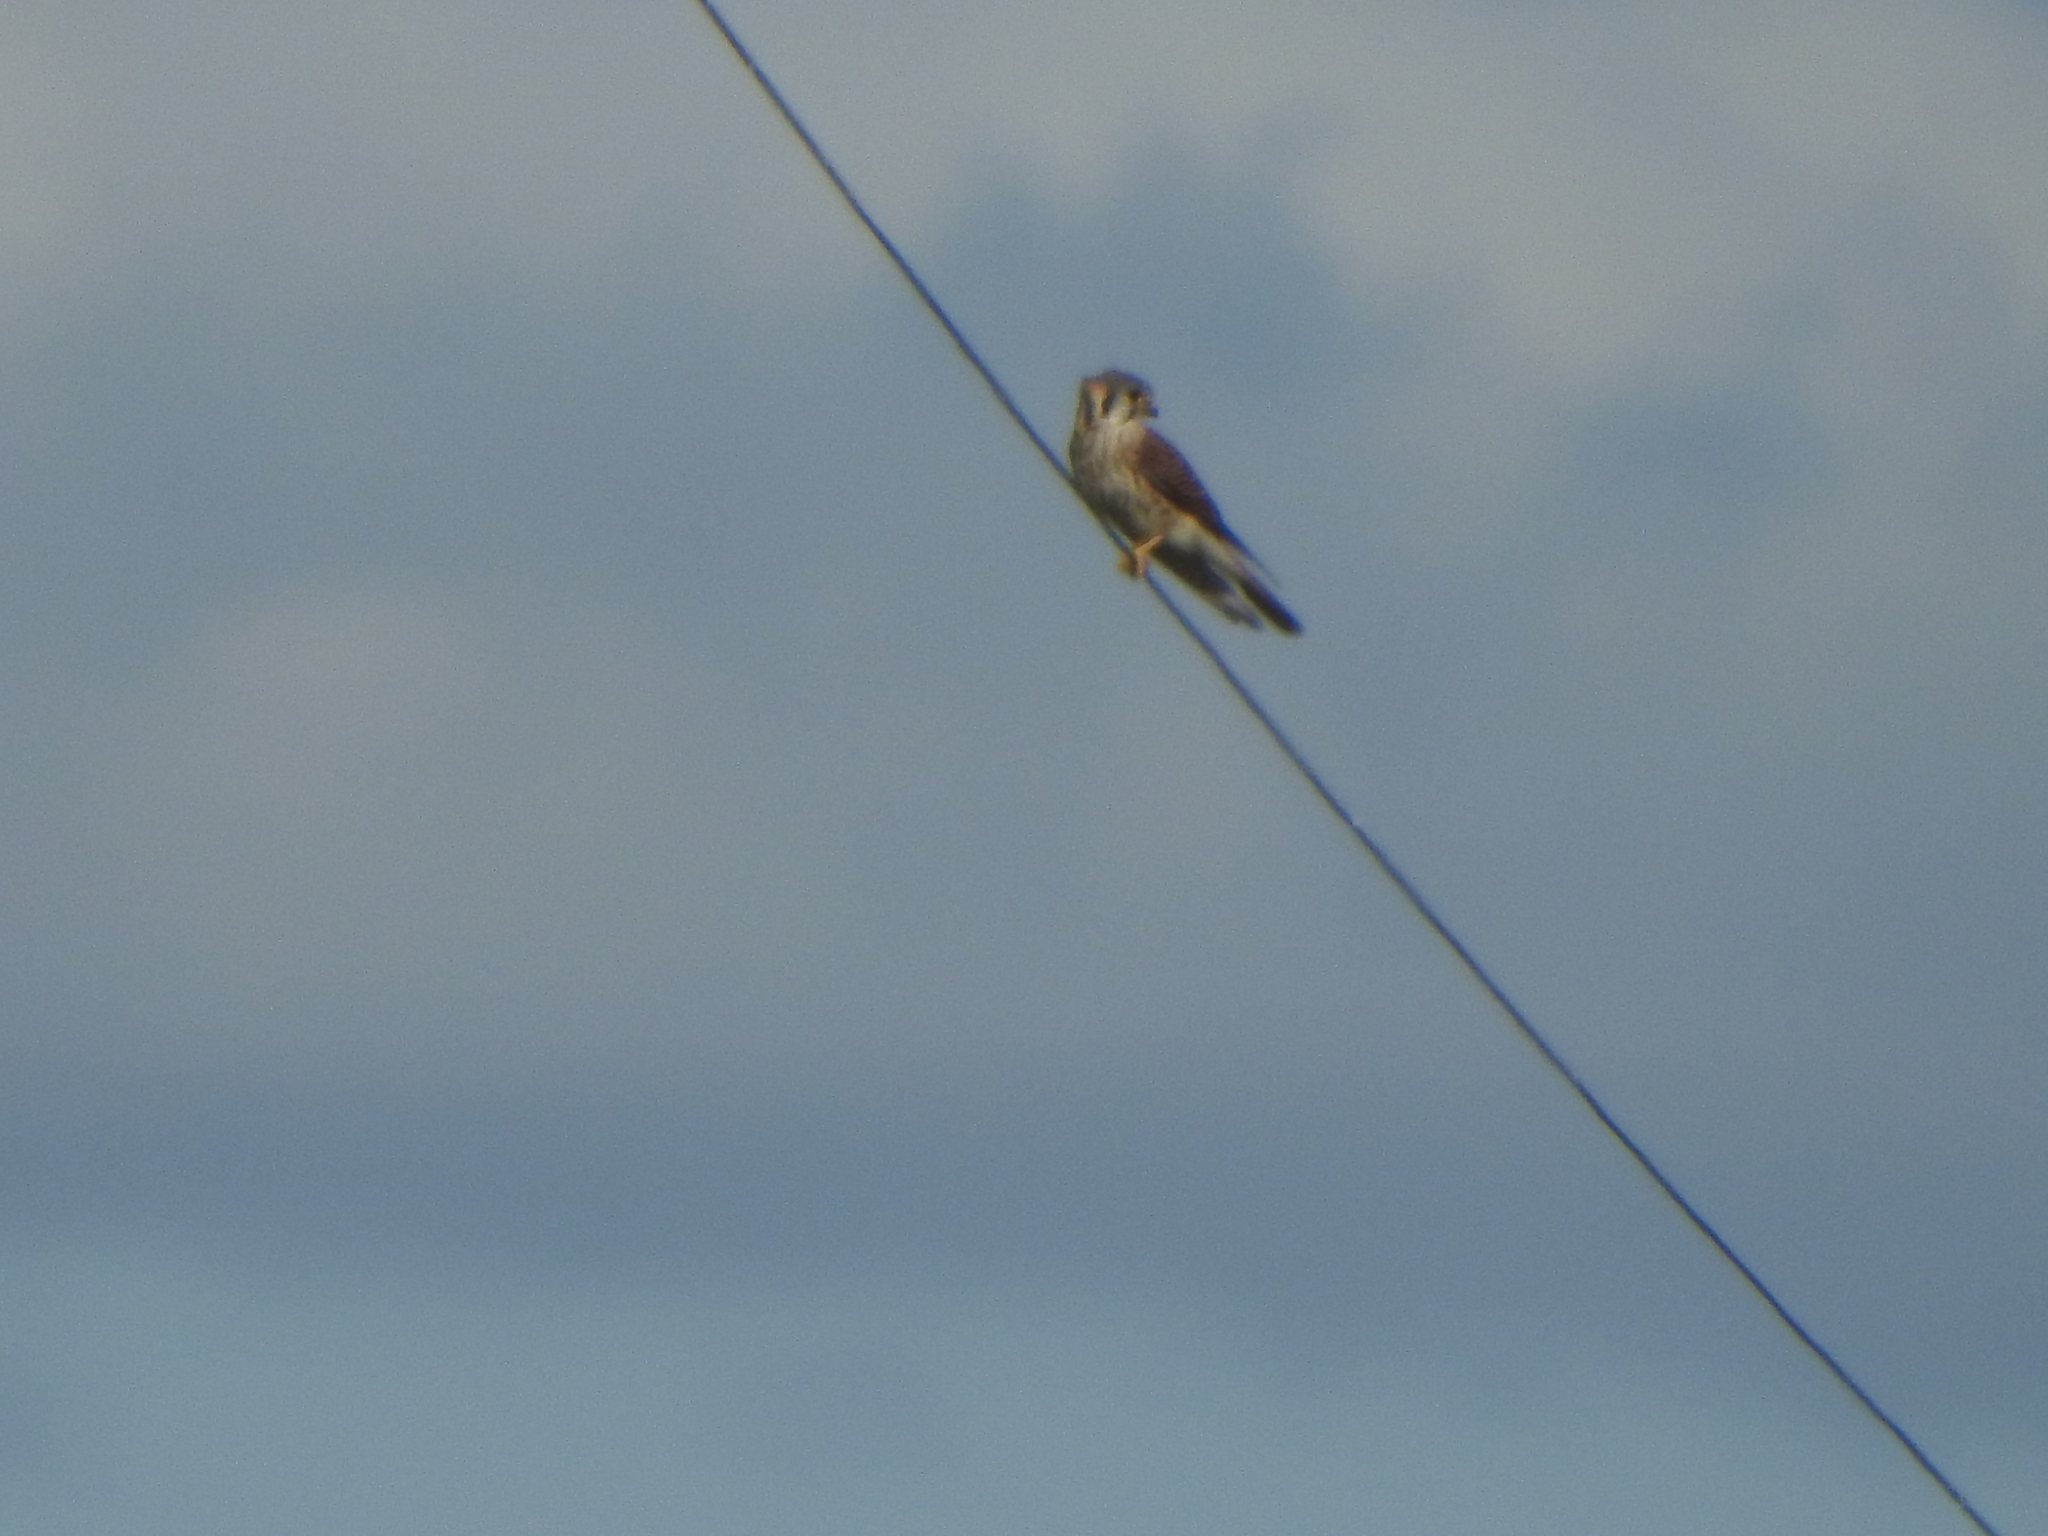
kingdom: Animalia
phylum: Chordata
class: Aves
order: Falconiformes
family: Falconidae
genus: Falco
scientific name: Falco sparverius
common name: American kestrel
